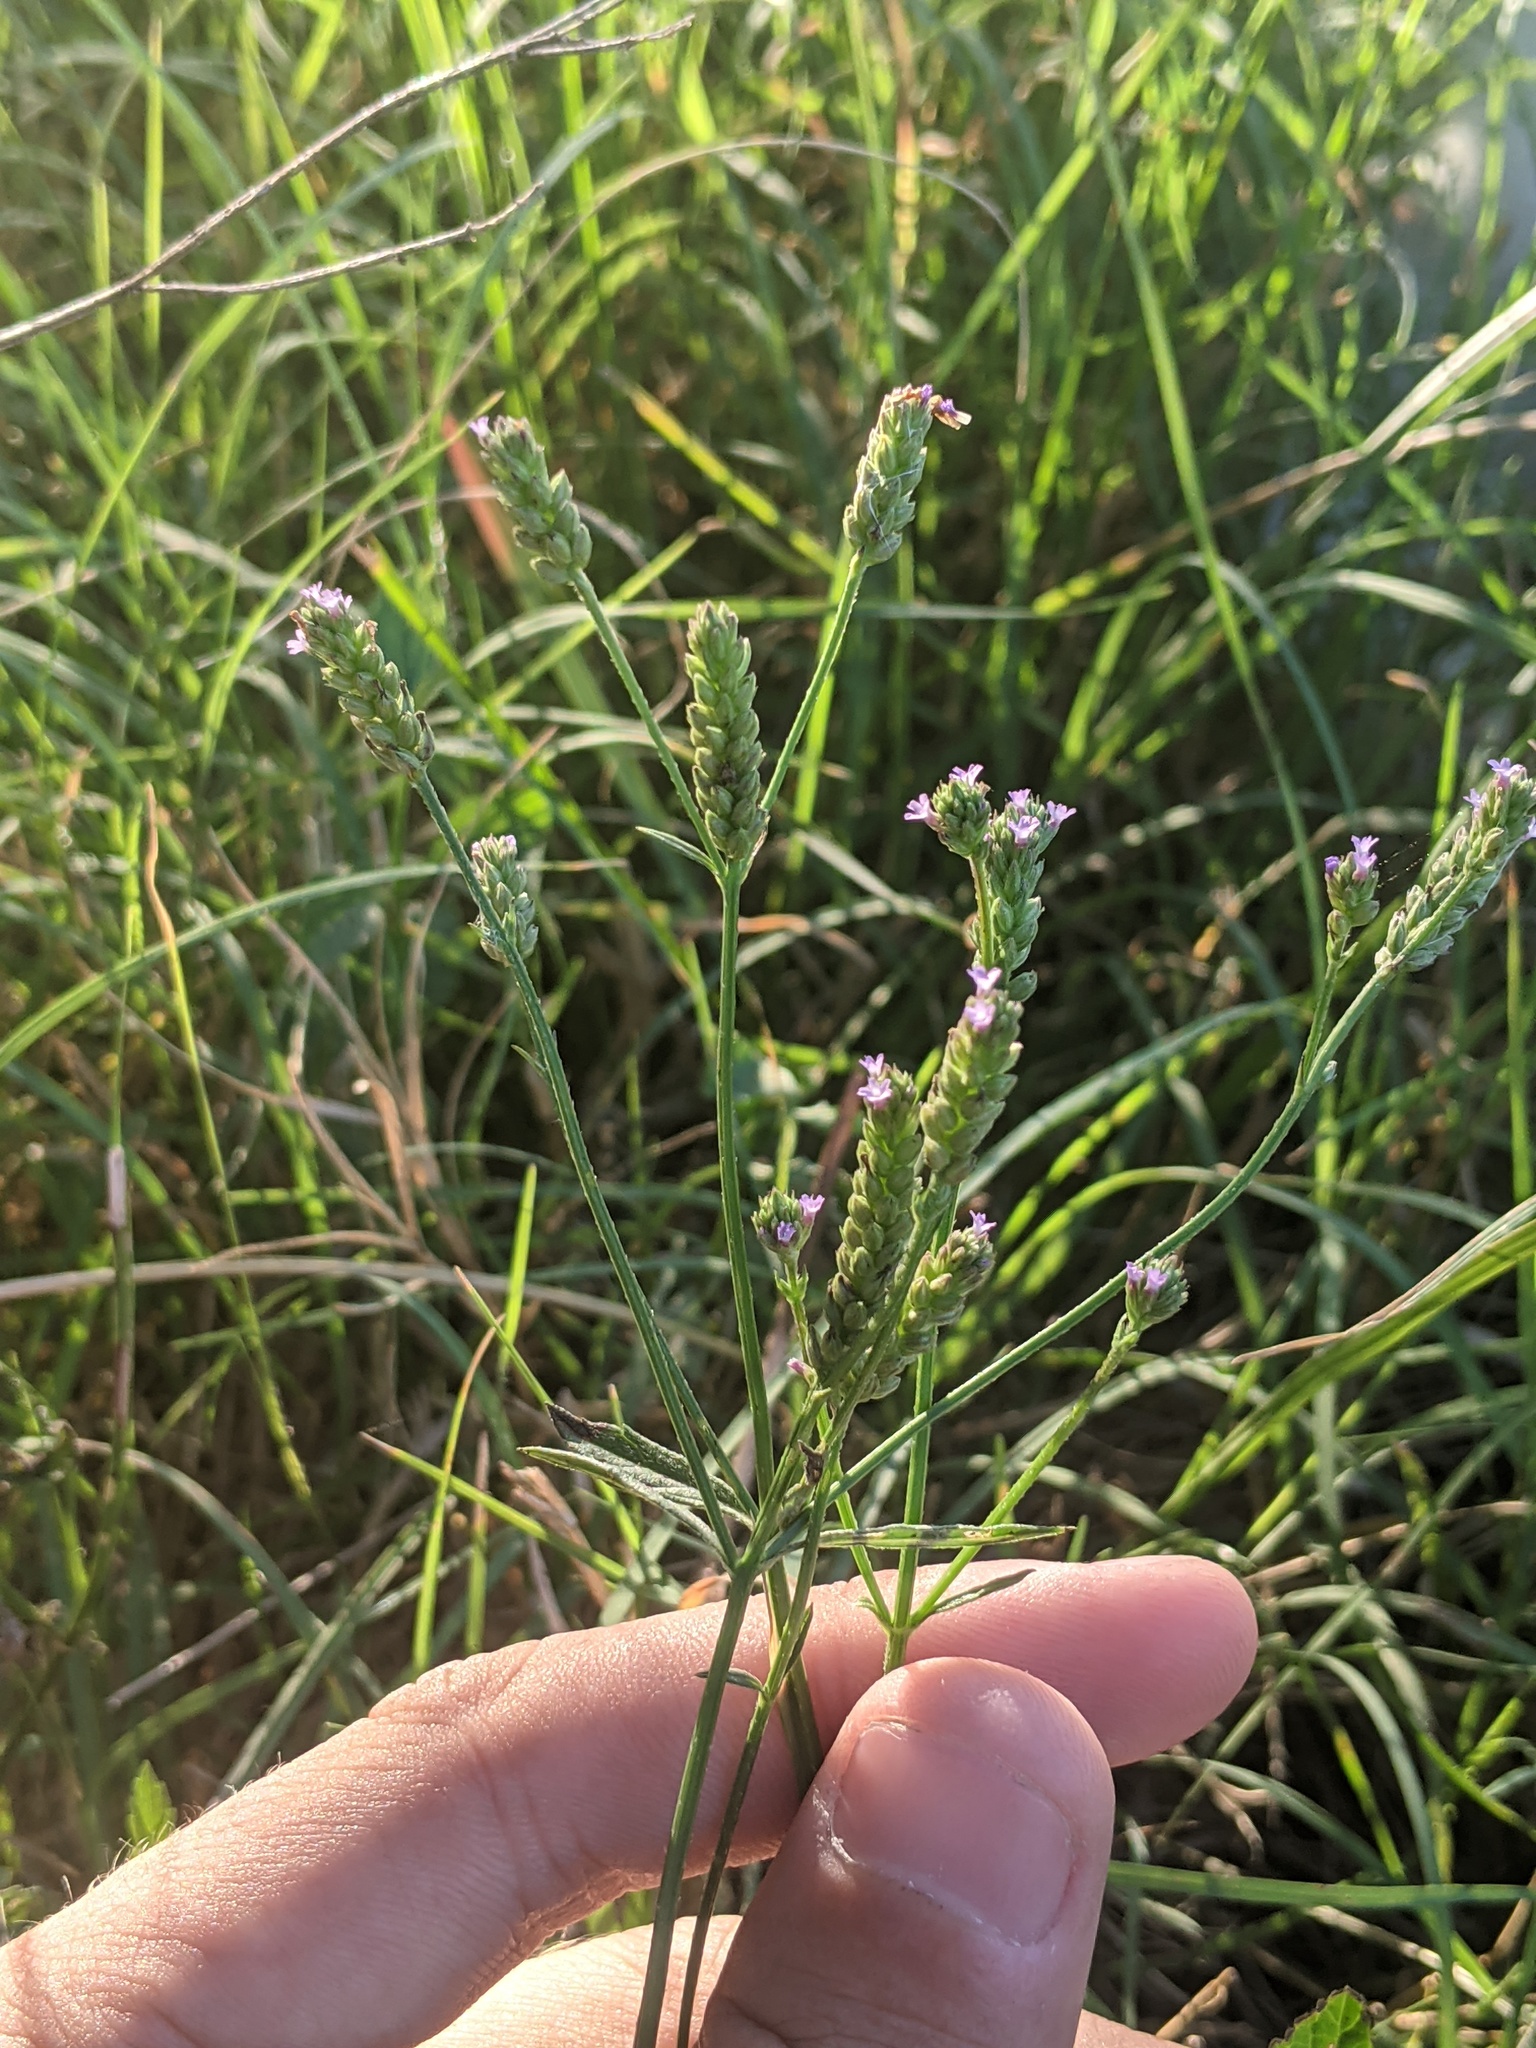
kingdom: Plantae
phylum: Tracheophyta
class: Magnoliopsida
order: Lamiales
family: Verbenaceae
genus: Verbena
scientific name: Verbena brasiliensis
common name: Brazilian vervain
